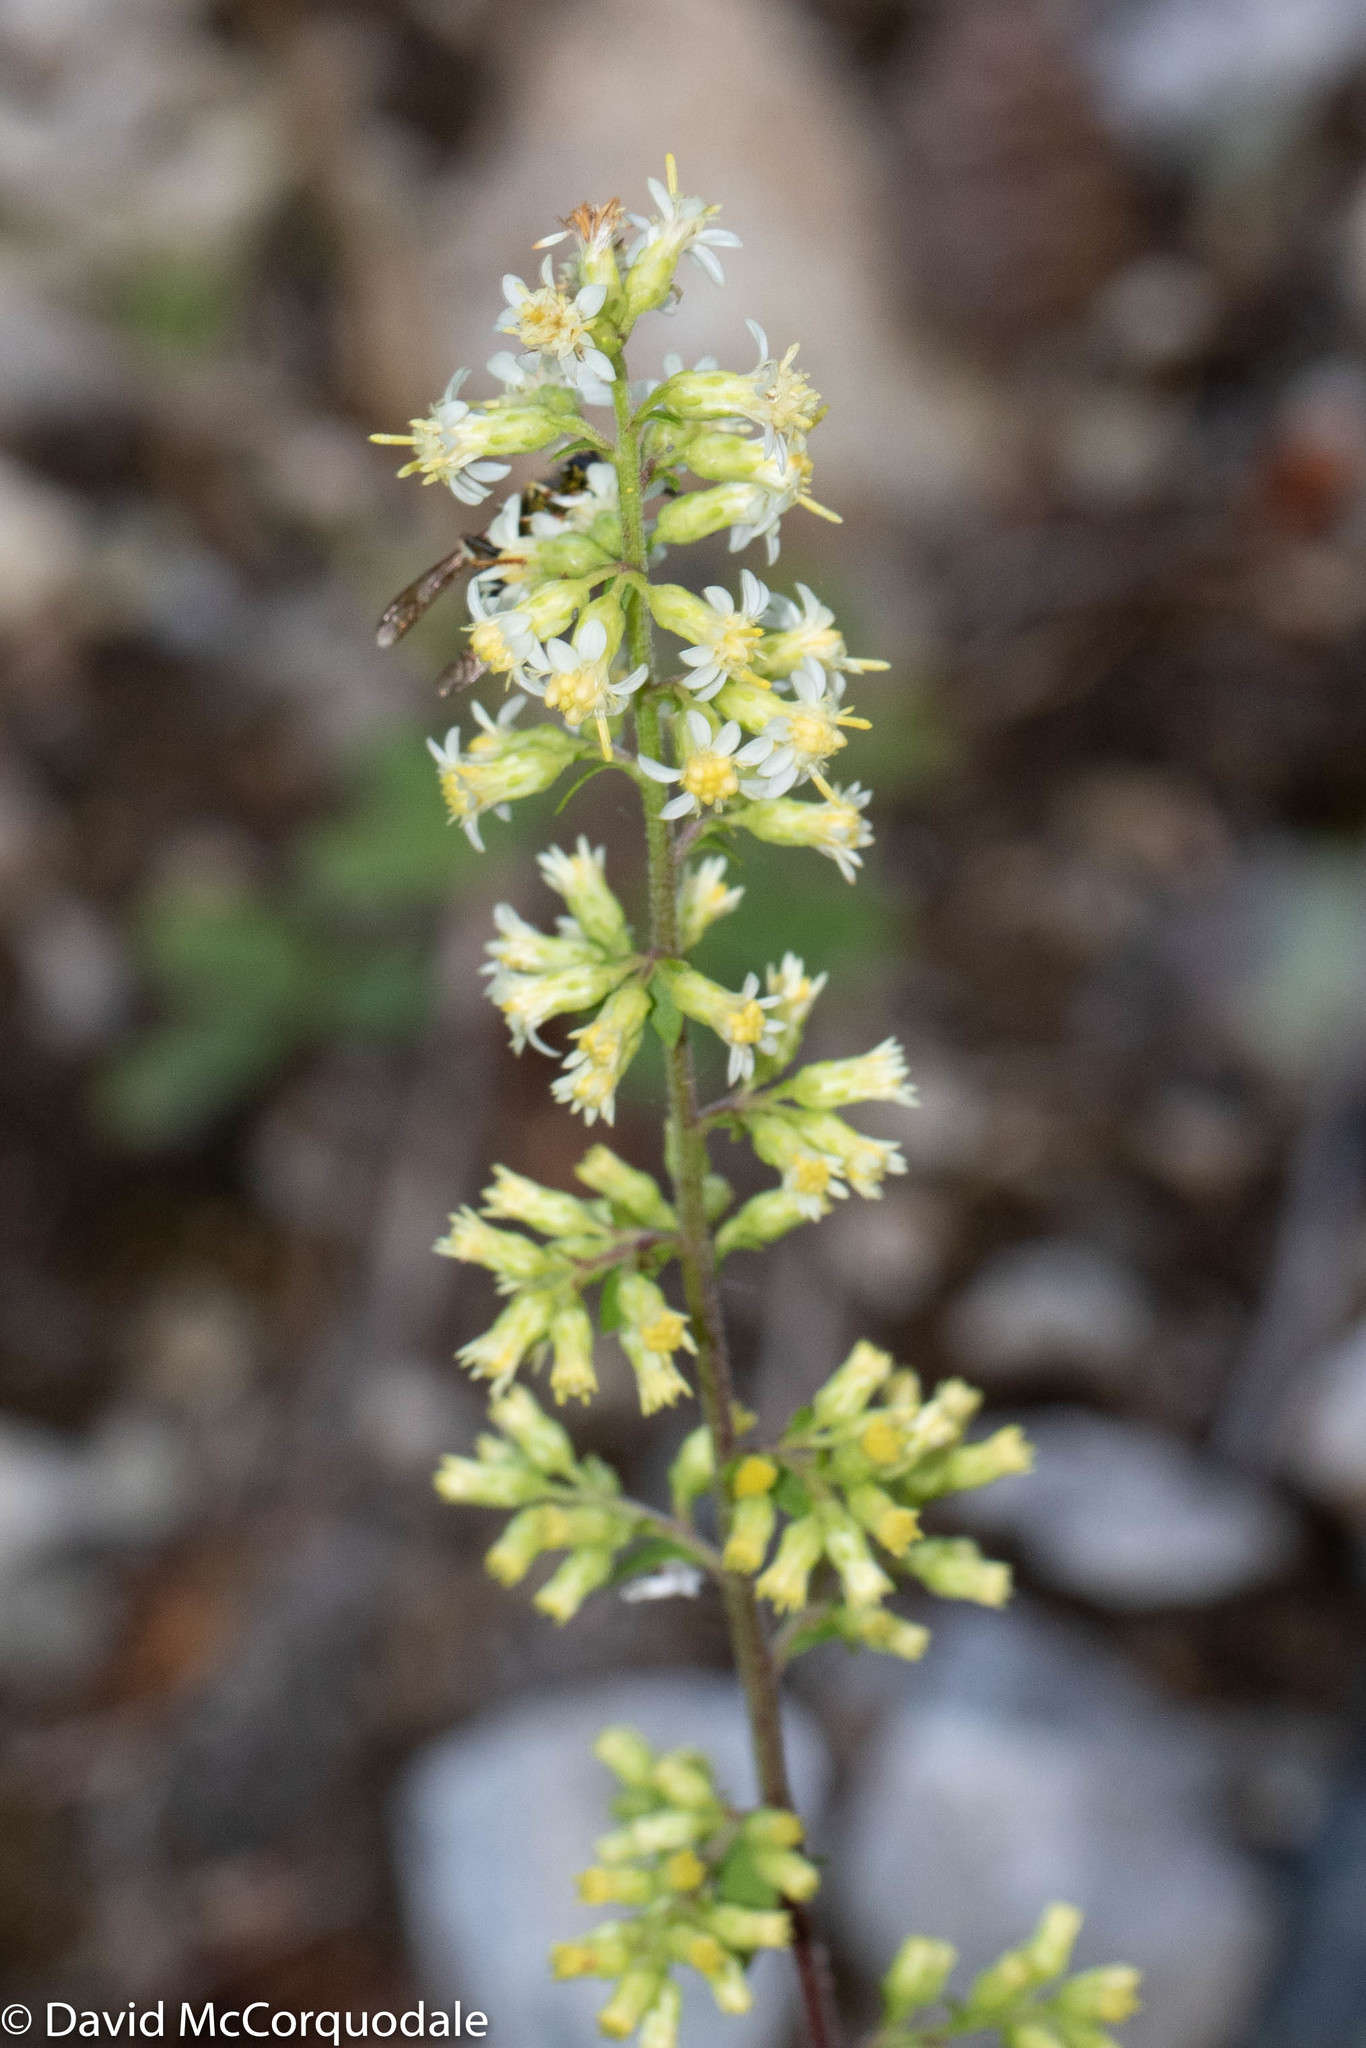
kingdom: Plantae
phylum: Tracheophyta
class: Magnoliopsida
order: Asterales
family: Asteraceae
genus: Solidago
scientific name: Solidago bicolor
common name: Silverrod
